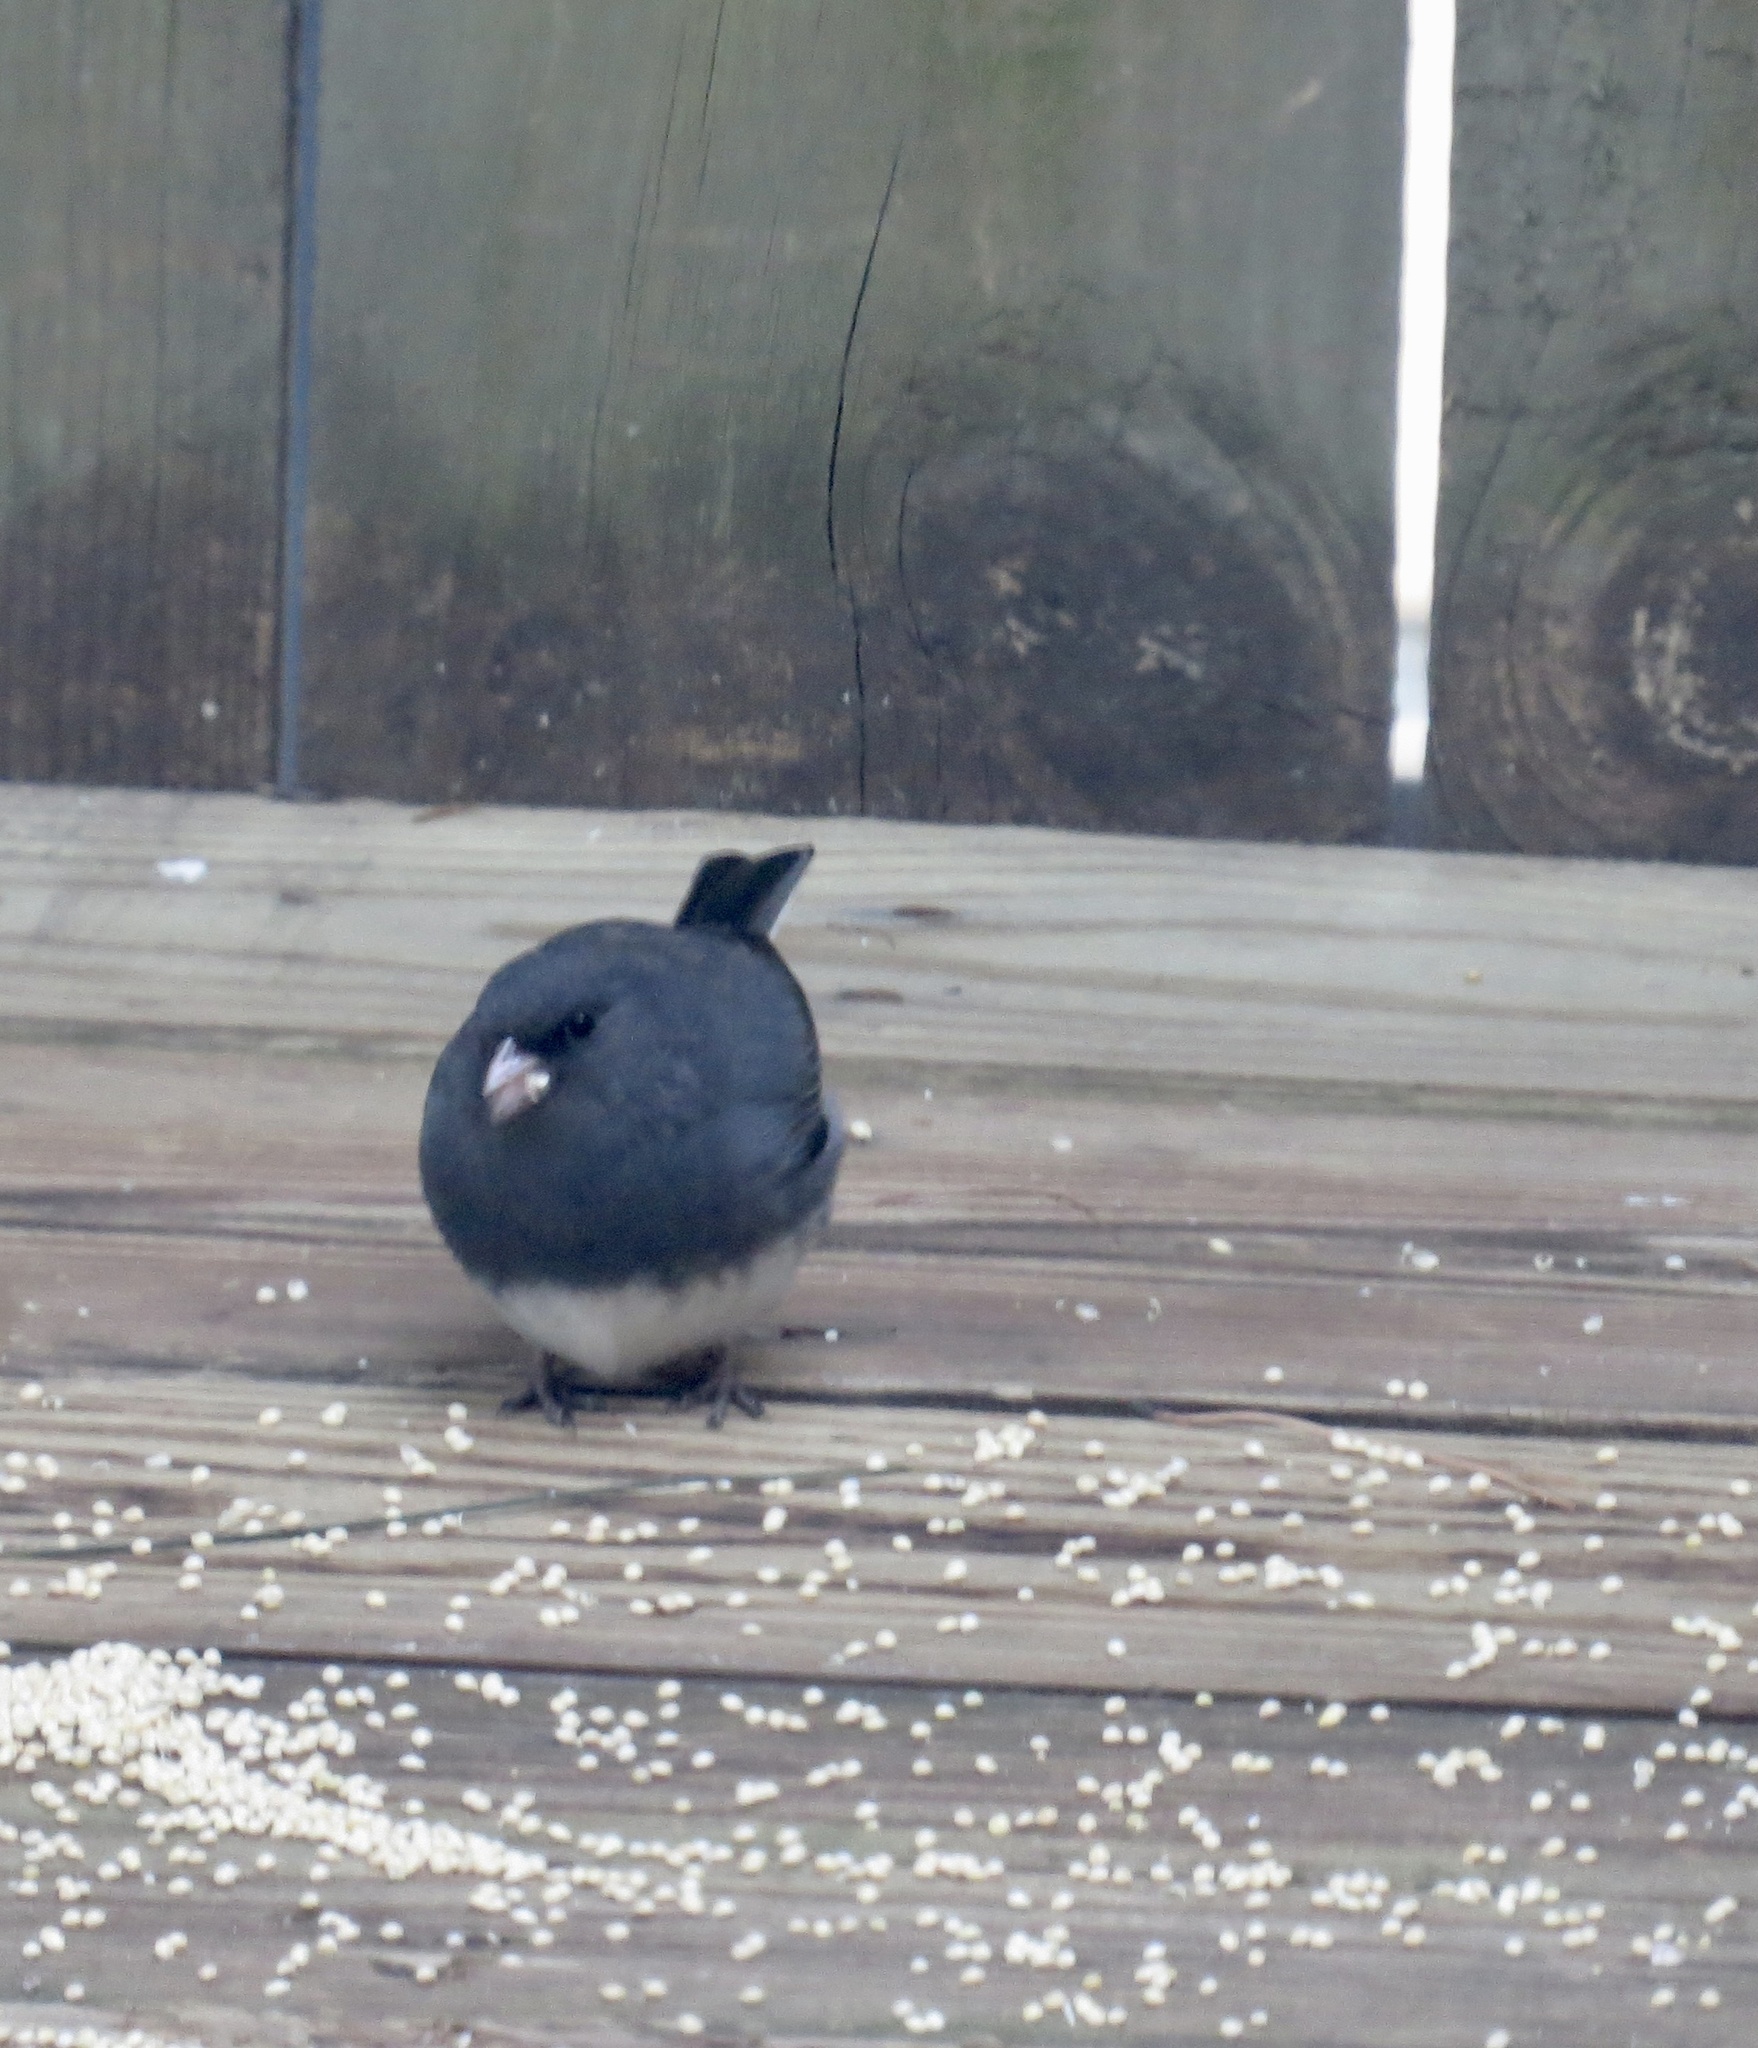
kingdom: Animalia
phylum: Chordata
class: Aves
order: Passeriformes
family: Passerellidae
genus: Junco
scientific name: Junco hyemalis
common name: Dark-eyed junco
